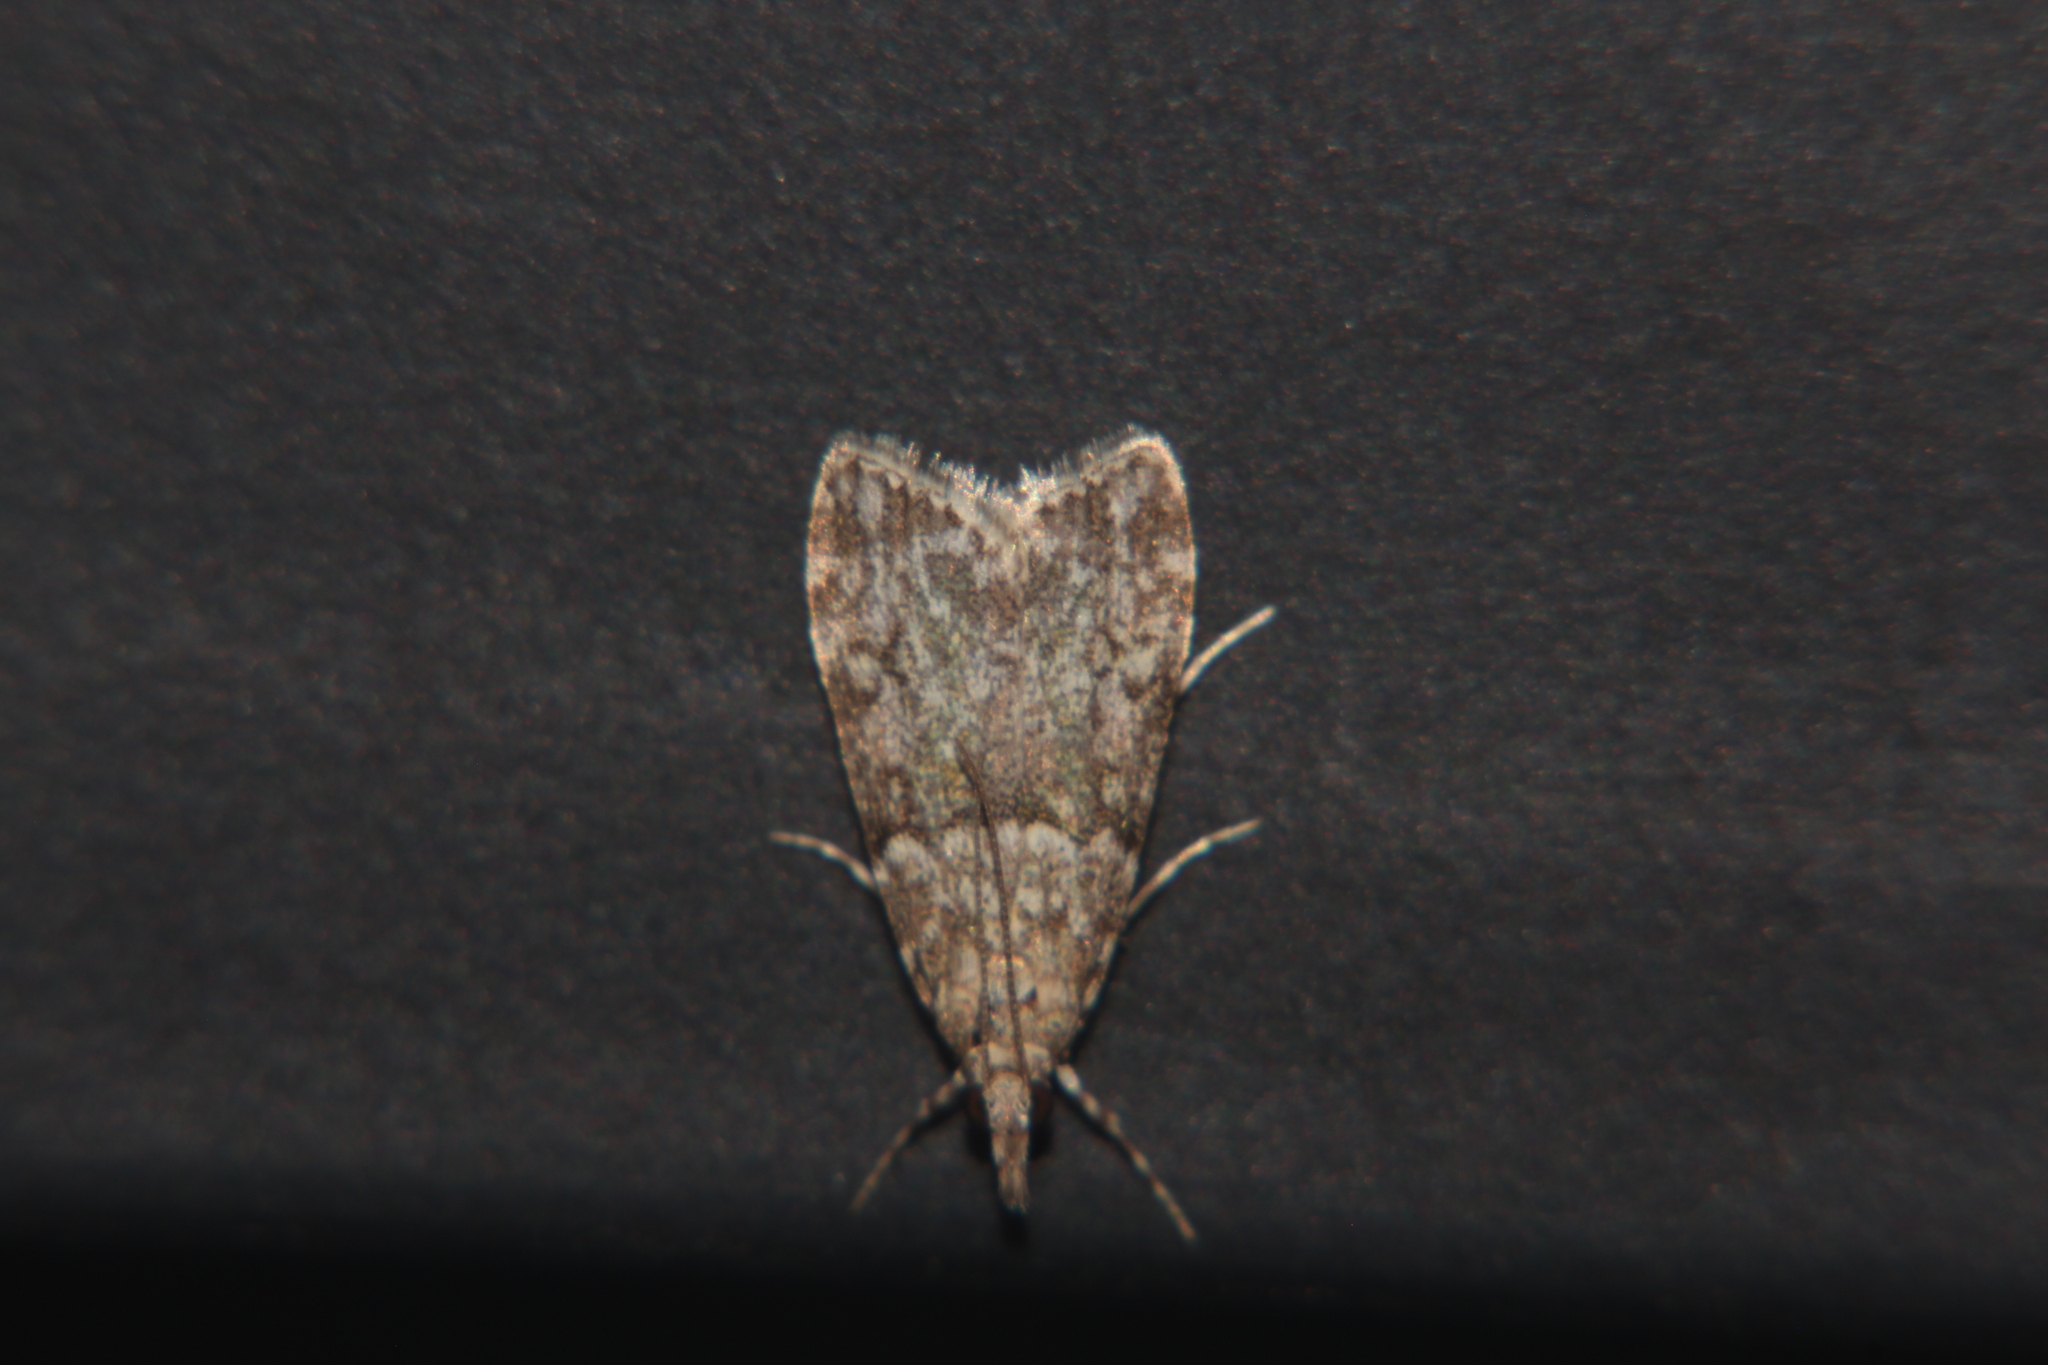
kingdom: Animalia
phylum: Arthropoda
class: Insecta
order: Lepidoptera
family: Crambidae
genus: Eudonia
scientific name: Eudonia subditella
